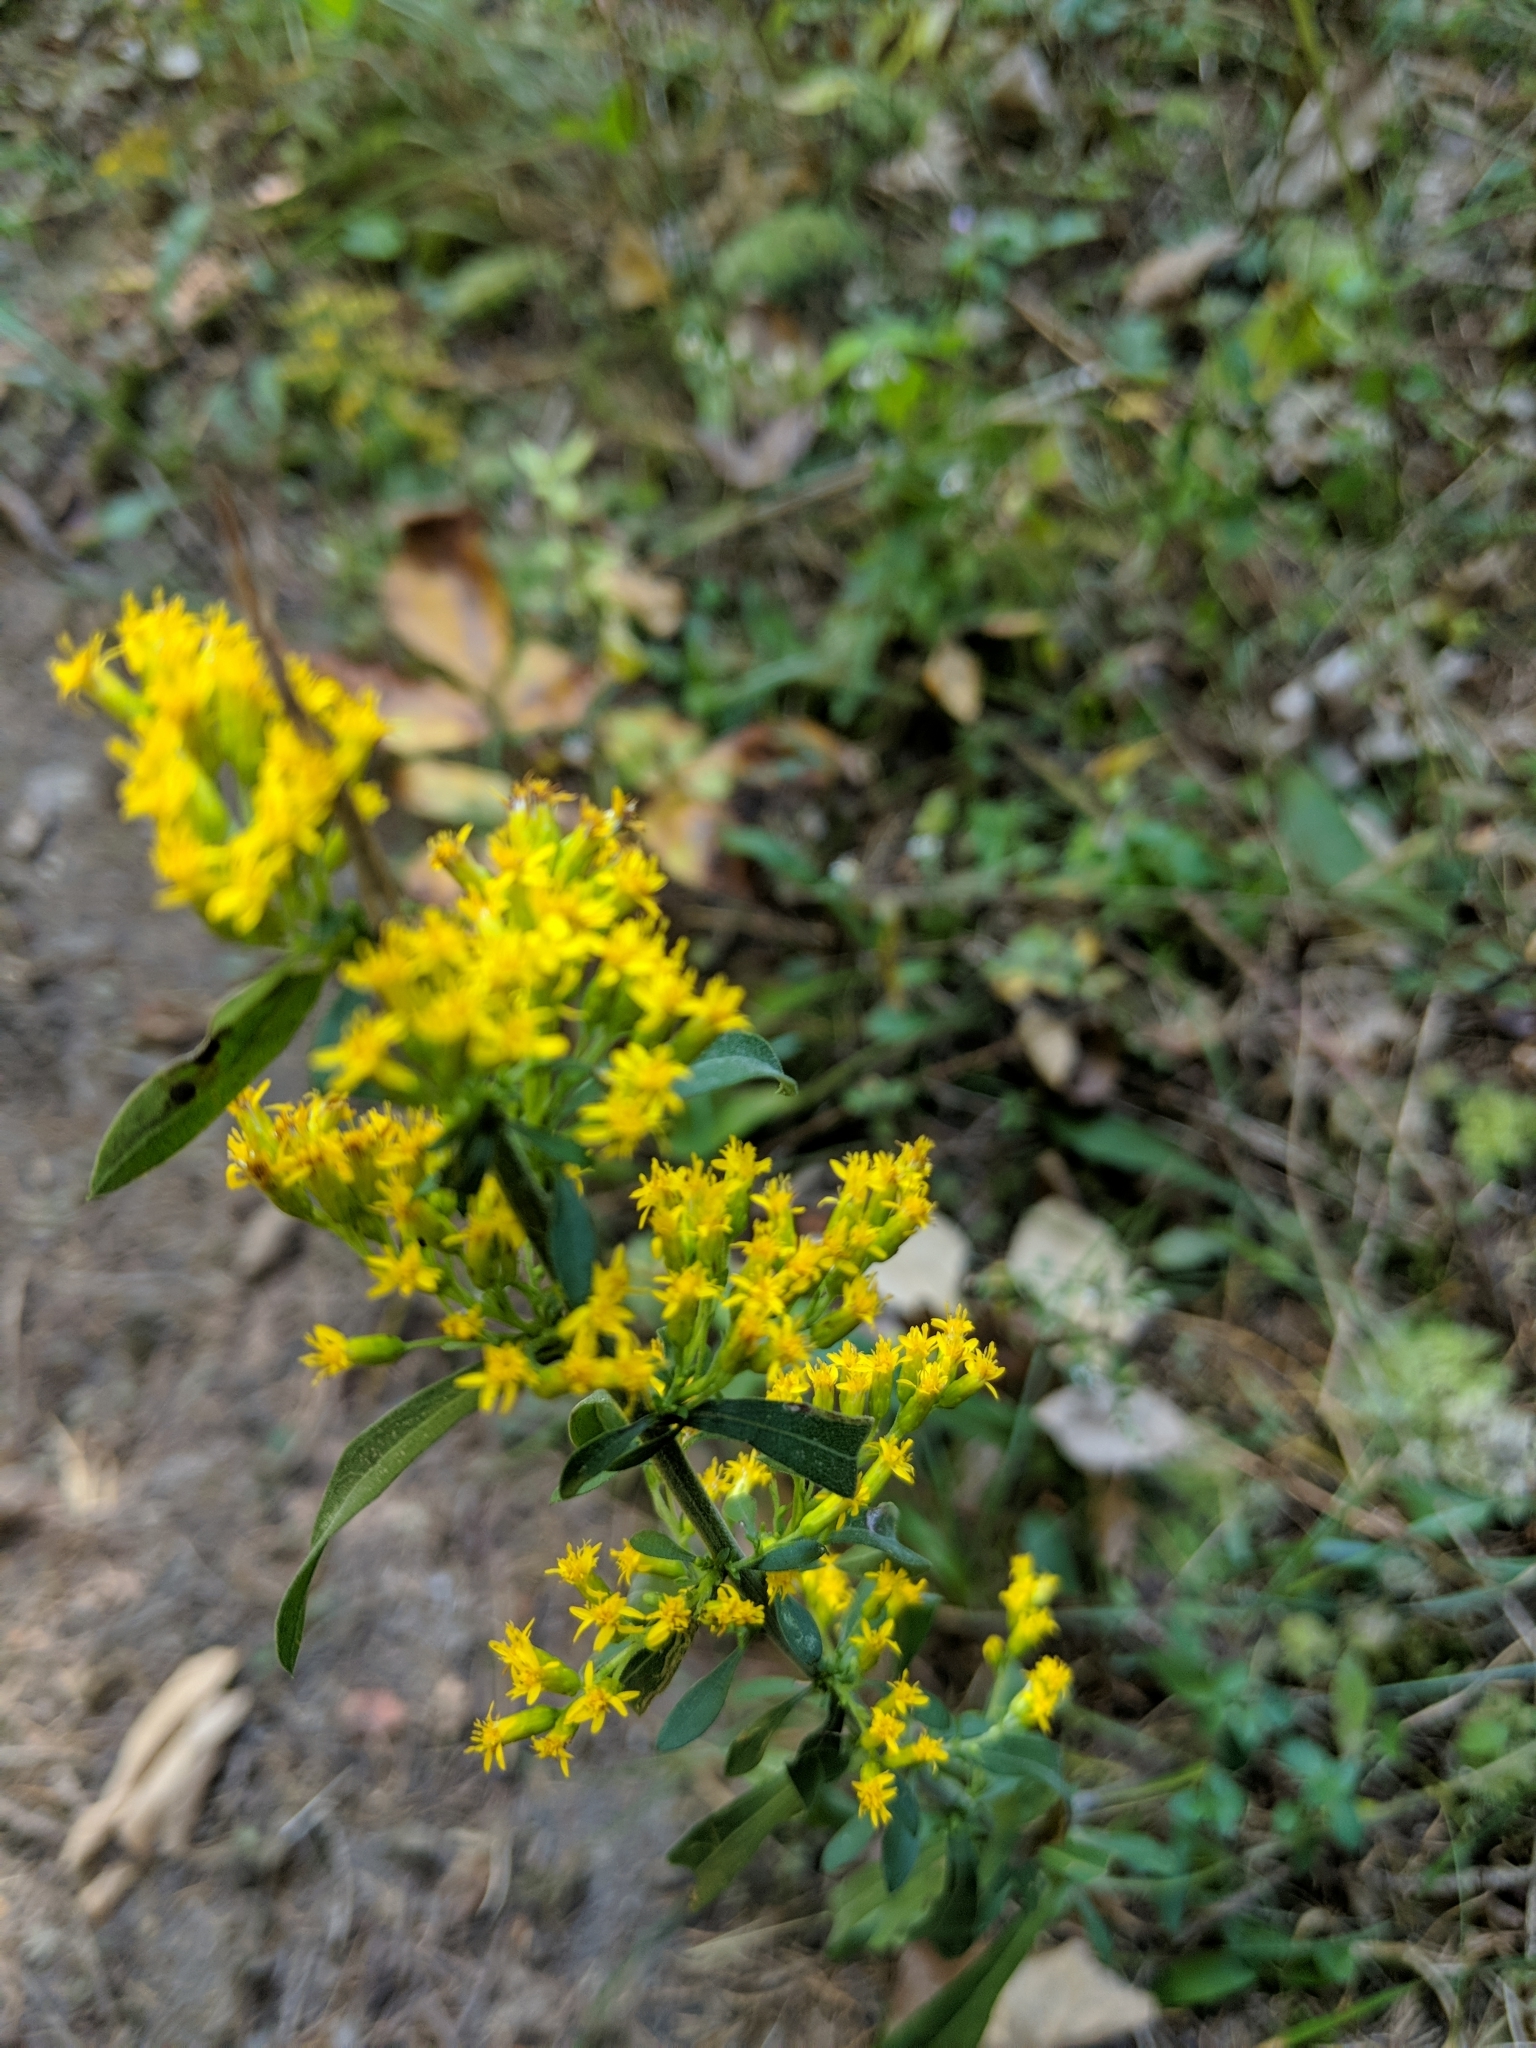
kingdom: Plantae
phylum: Tracheophyta
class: Magnoliopsida
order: Asterales
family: Asteraceae
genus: Solidago
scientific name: Solidago nemoralis
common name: Grey goldenrod
